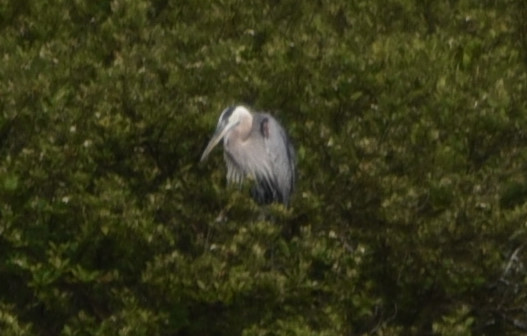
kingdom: Animalia
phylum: Chordata
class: Aves
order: Pelecaniformes
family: Ardeidae
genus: Ardea
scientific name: Ardea herodias
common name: Great blue heron
